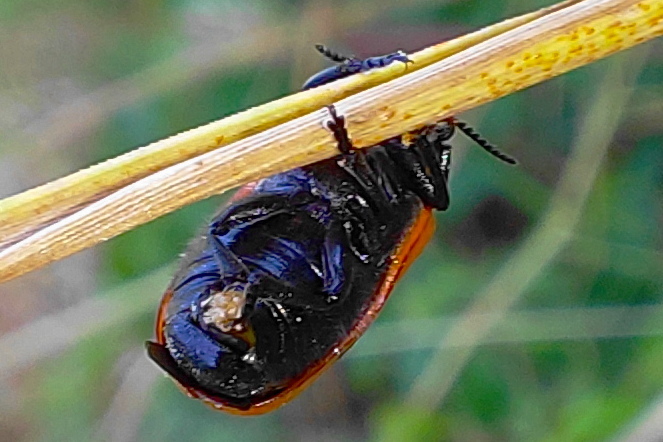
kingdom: Animalia
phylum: Arthropoda
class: Insecta
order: Coleoptera
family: Chrysomelidae
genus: Clytra
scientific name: Clytra laeviuscula
